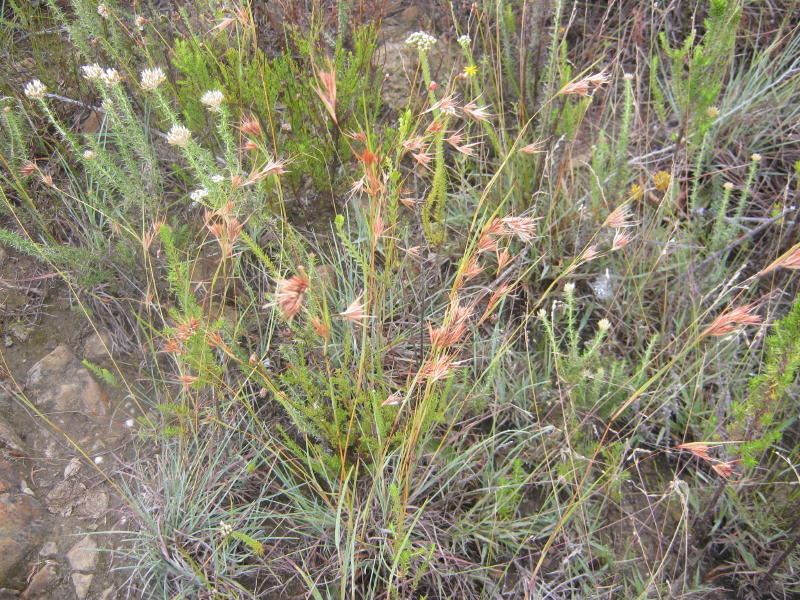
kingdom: Plantae
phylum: Tracheophyta
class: Liliopsida
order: Poales
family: Poaceae
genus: Themeda
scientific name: Themeda triandra
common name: Kangaroo grass
